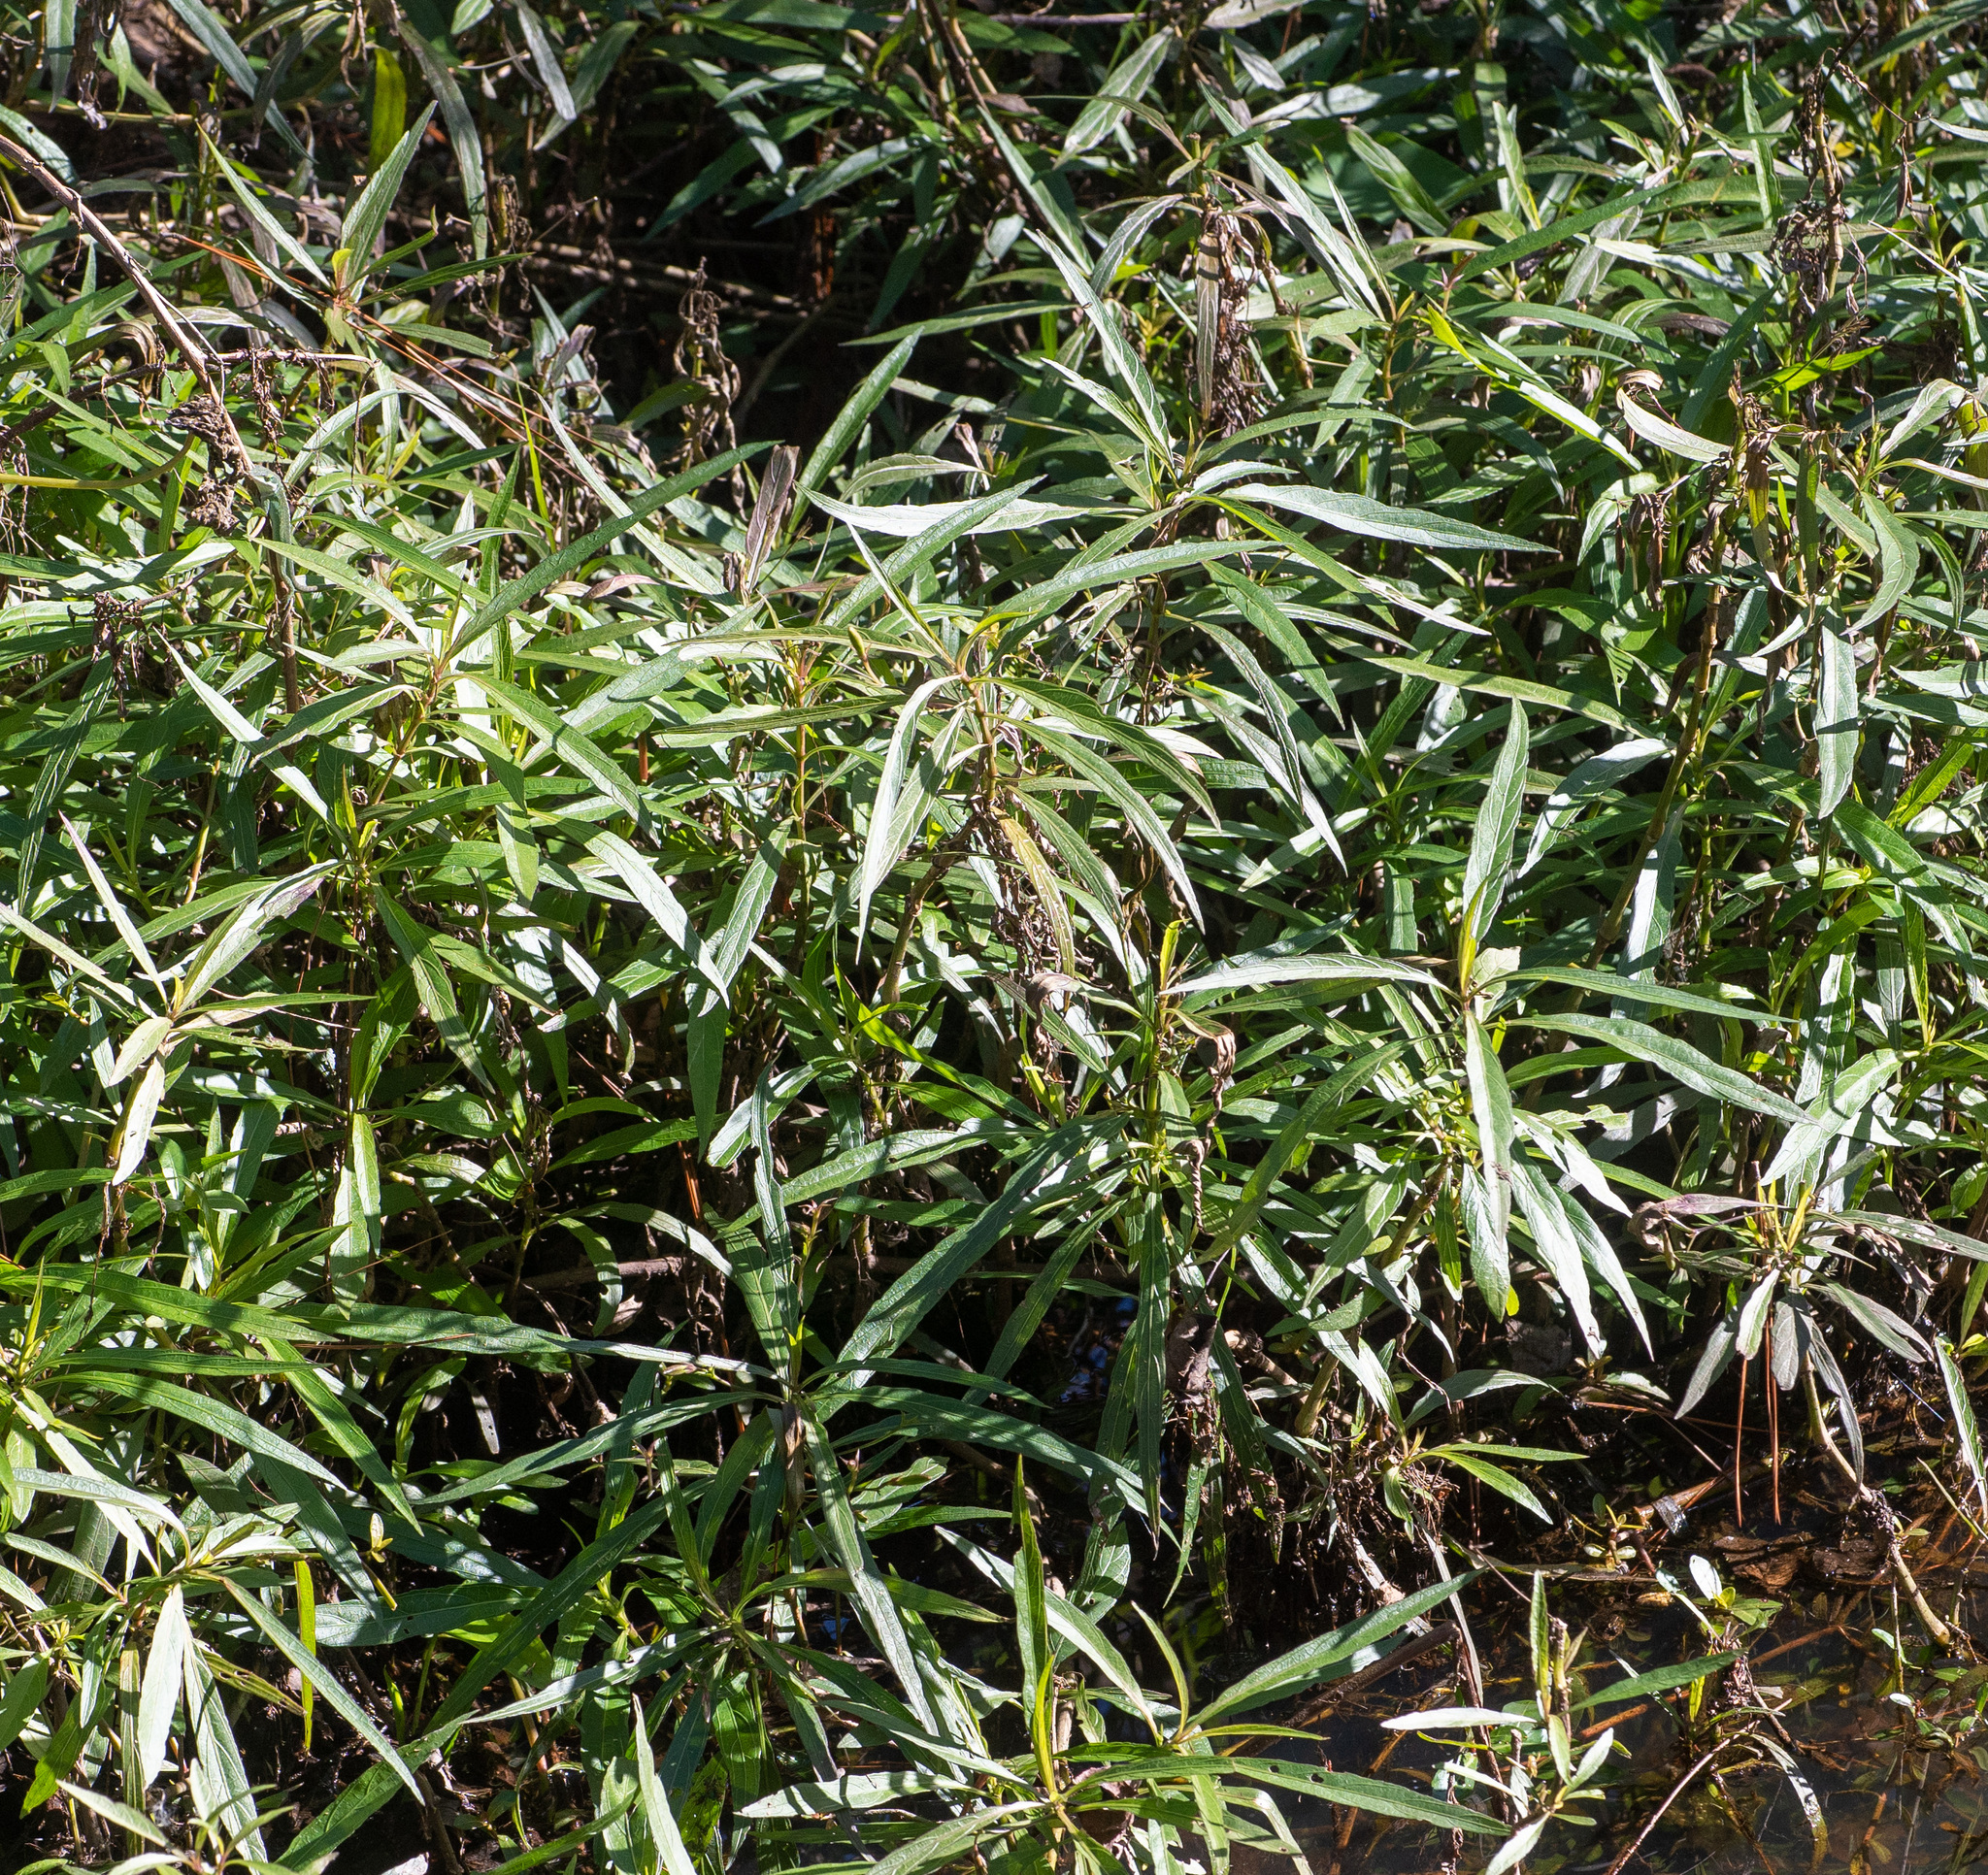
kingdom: Plantae
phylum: Tracheophyta
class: Magnoliopsida
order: Lamiales
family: Acanthaceae
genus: Ruellia
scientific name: Ruellia simplex
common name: Softseed wild petunia
